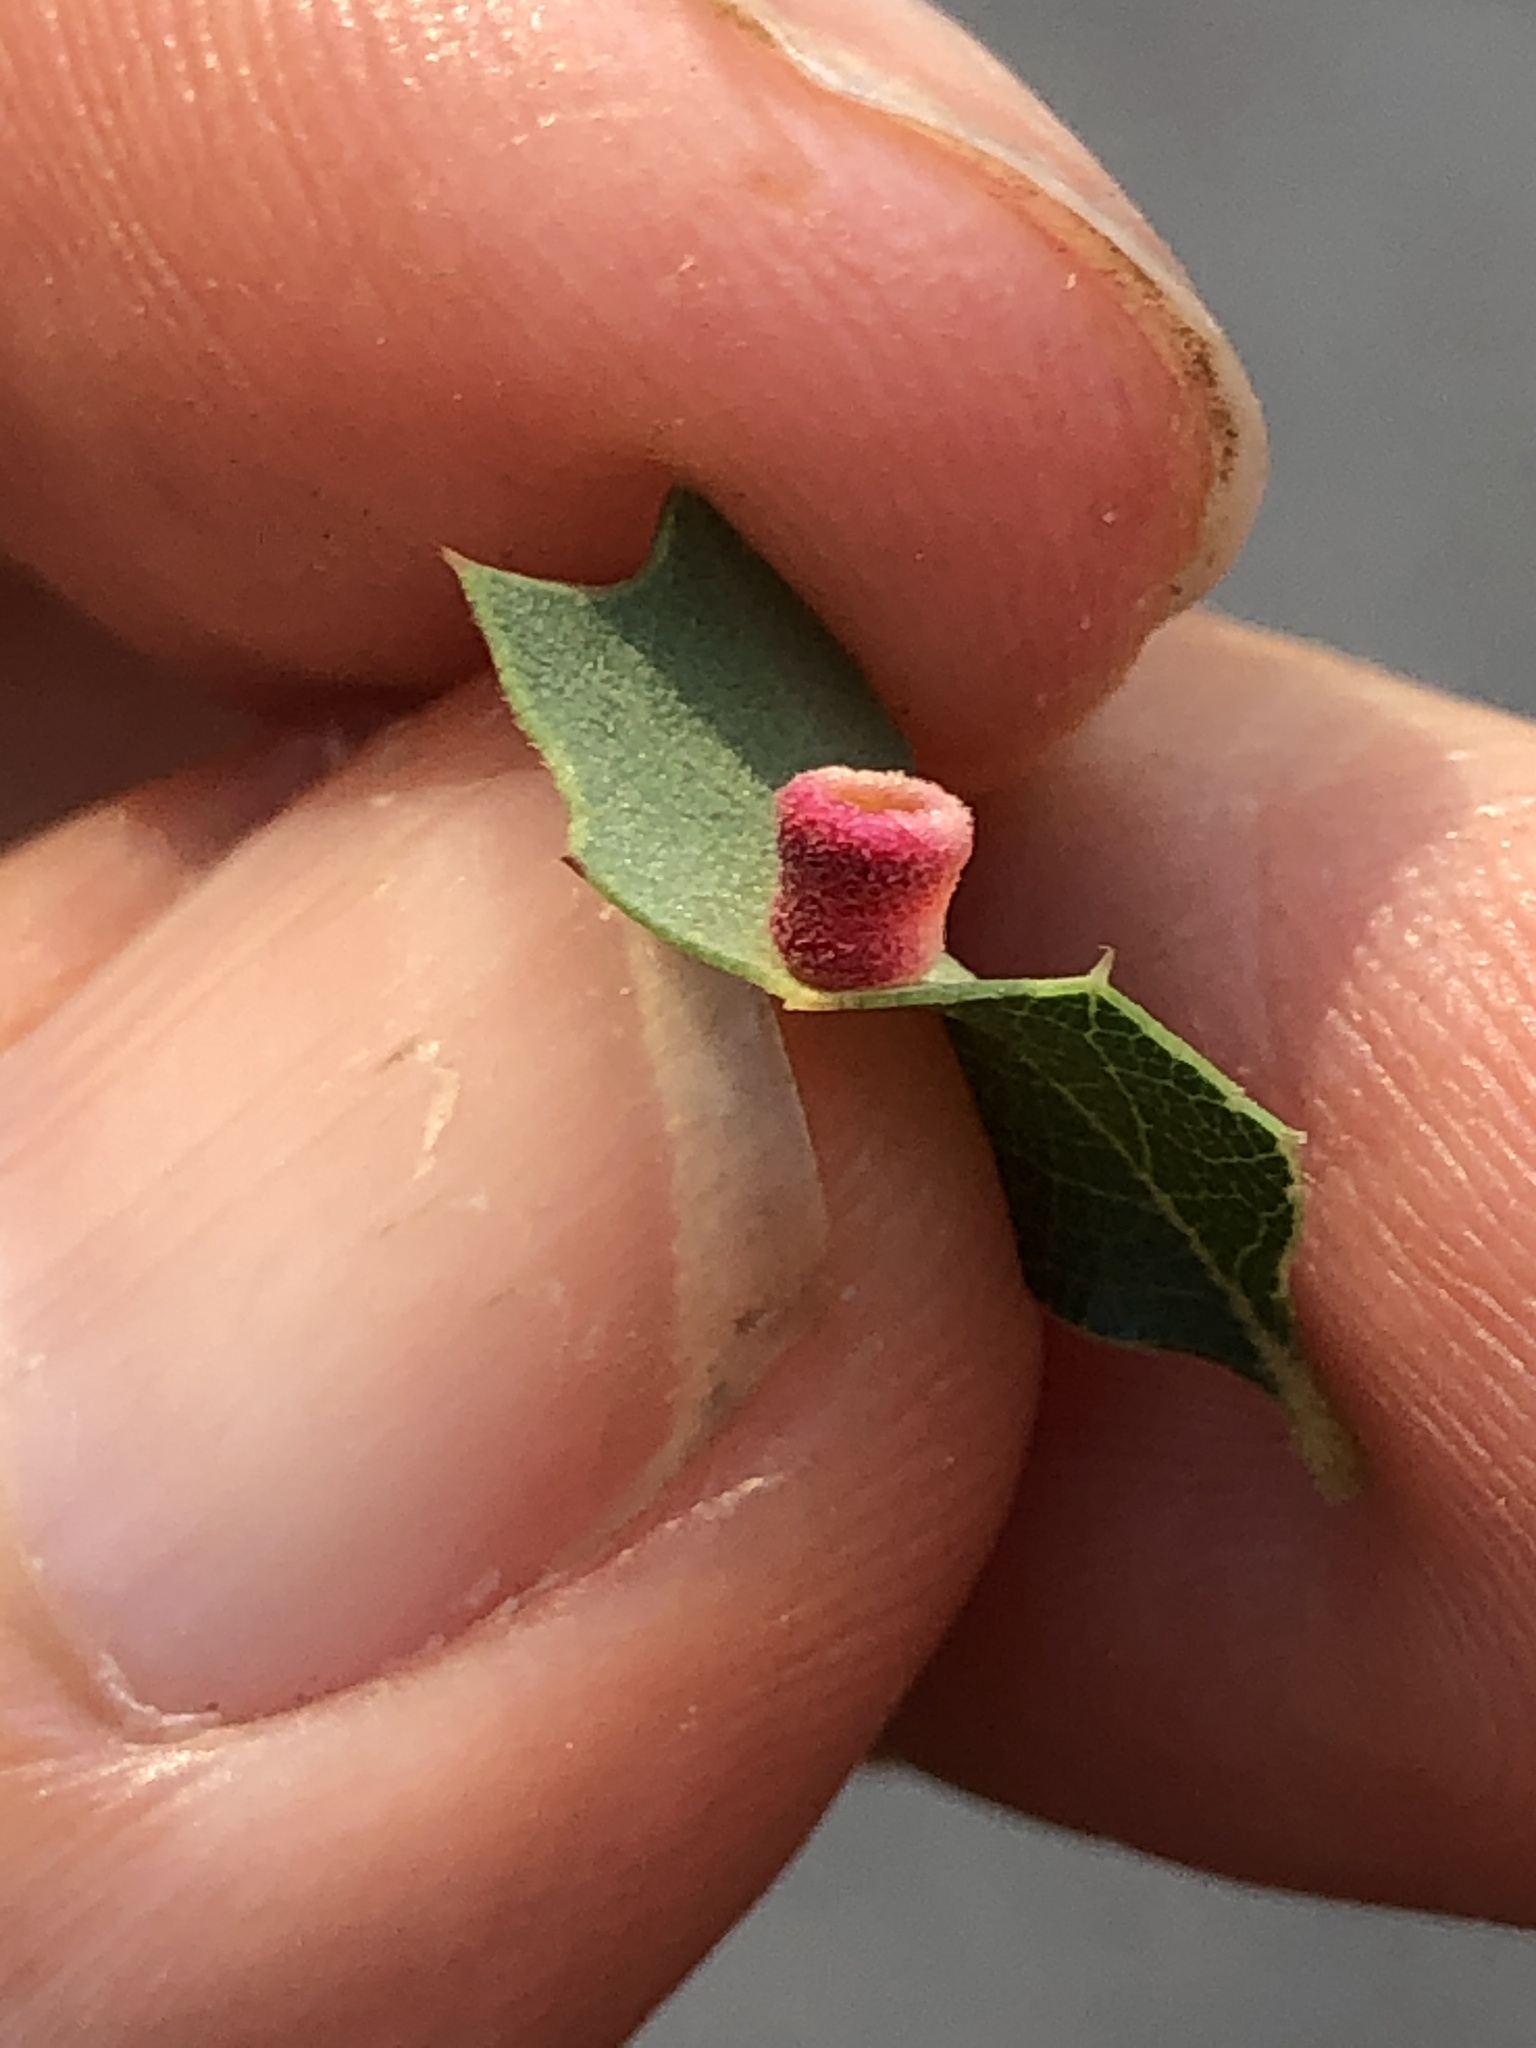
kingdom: Animalia
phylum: Arthropoda
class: Insecta
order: Hymenoptera
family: Cynipidae
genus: Phylloteras
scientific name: Phylloteras
